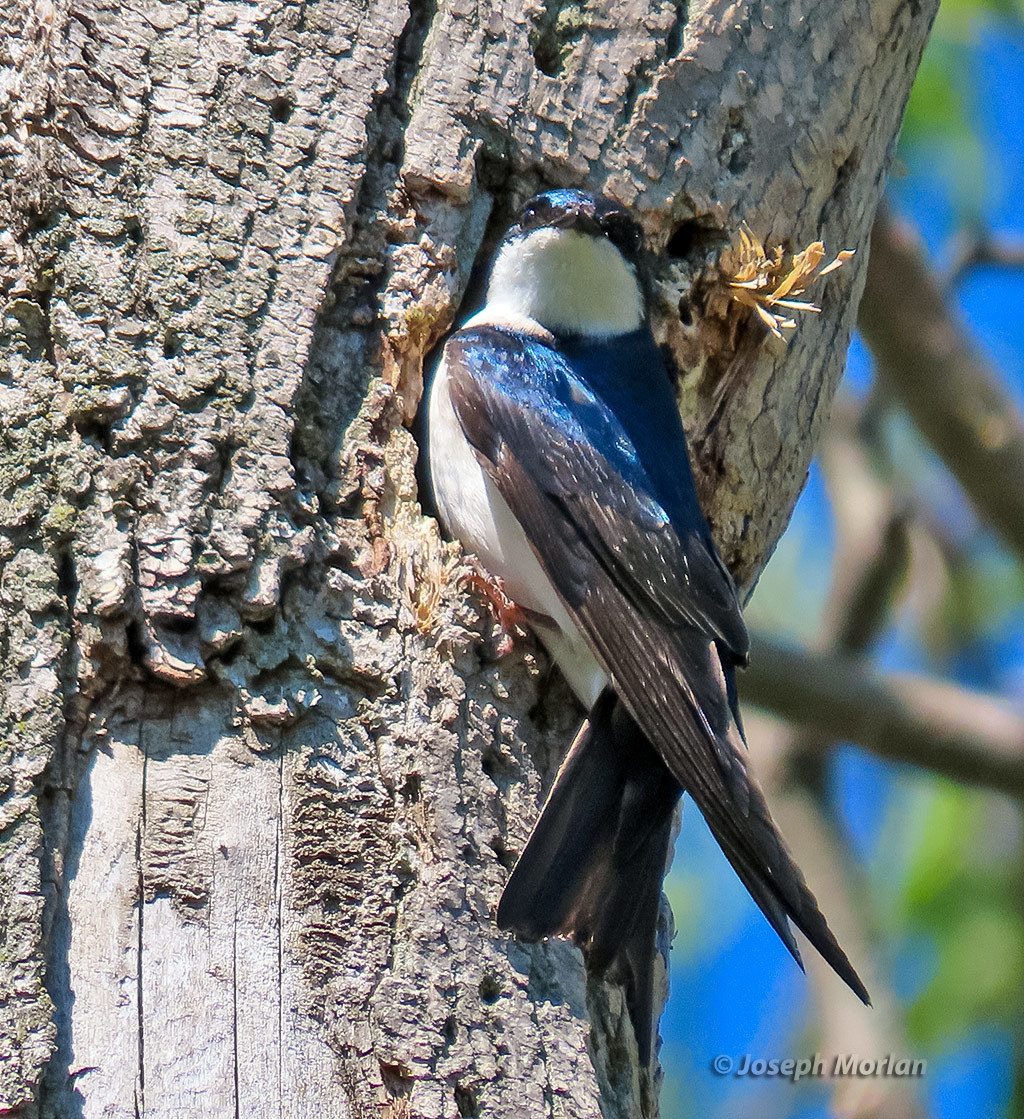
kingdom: Animalia
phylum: Chordata
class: Aves
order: Passeriformes
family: Hirundinidae
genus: Tachycineta
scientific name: Tachycineta bicolor
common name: Tree swallow
